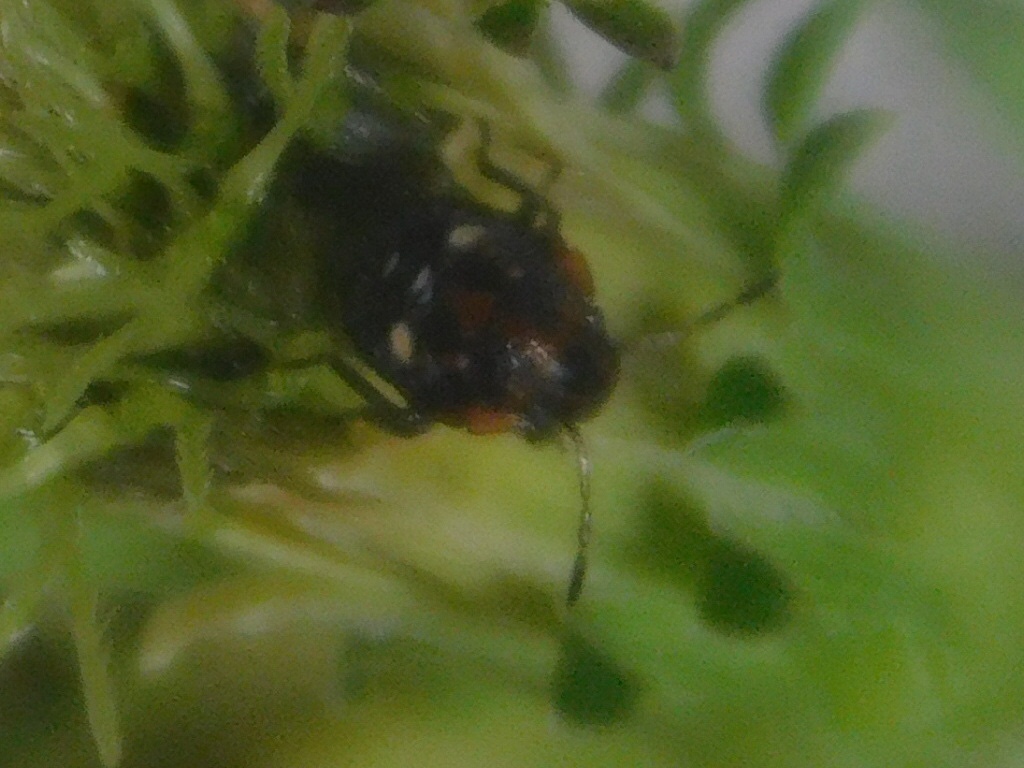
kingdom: Animalia
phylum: Arthropoda
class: Insecta
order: Hemiptera
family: Pentatomidae
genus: Thyanta
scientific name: Thyanta perditor
